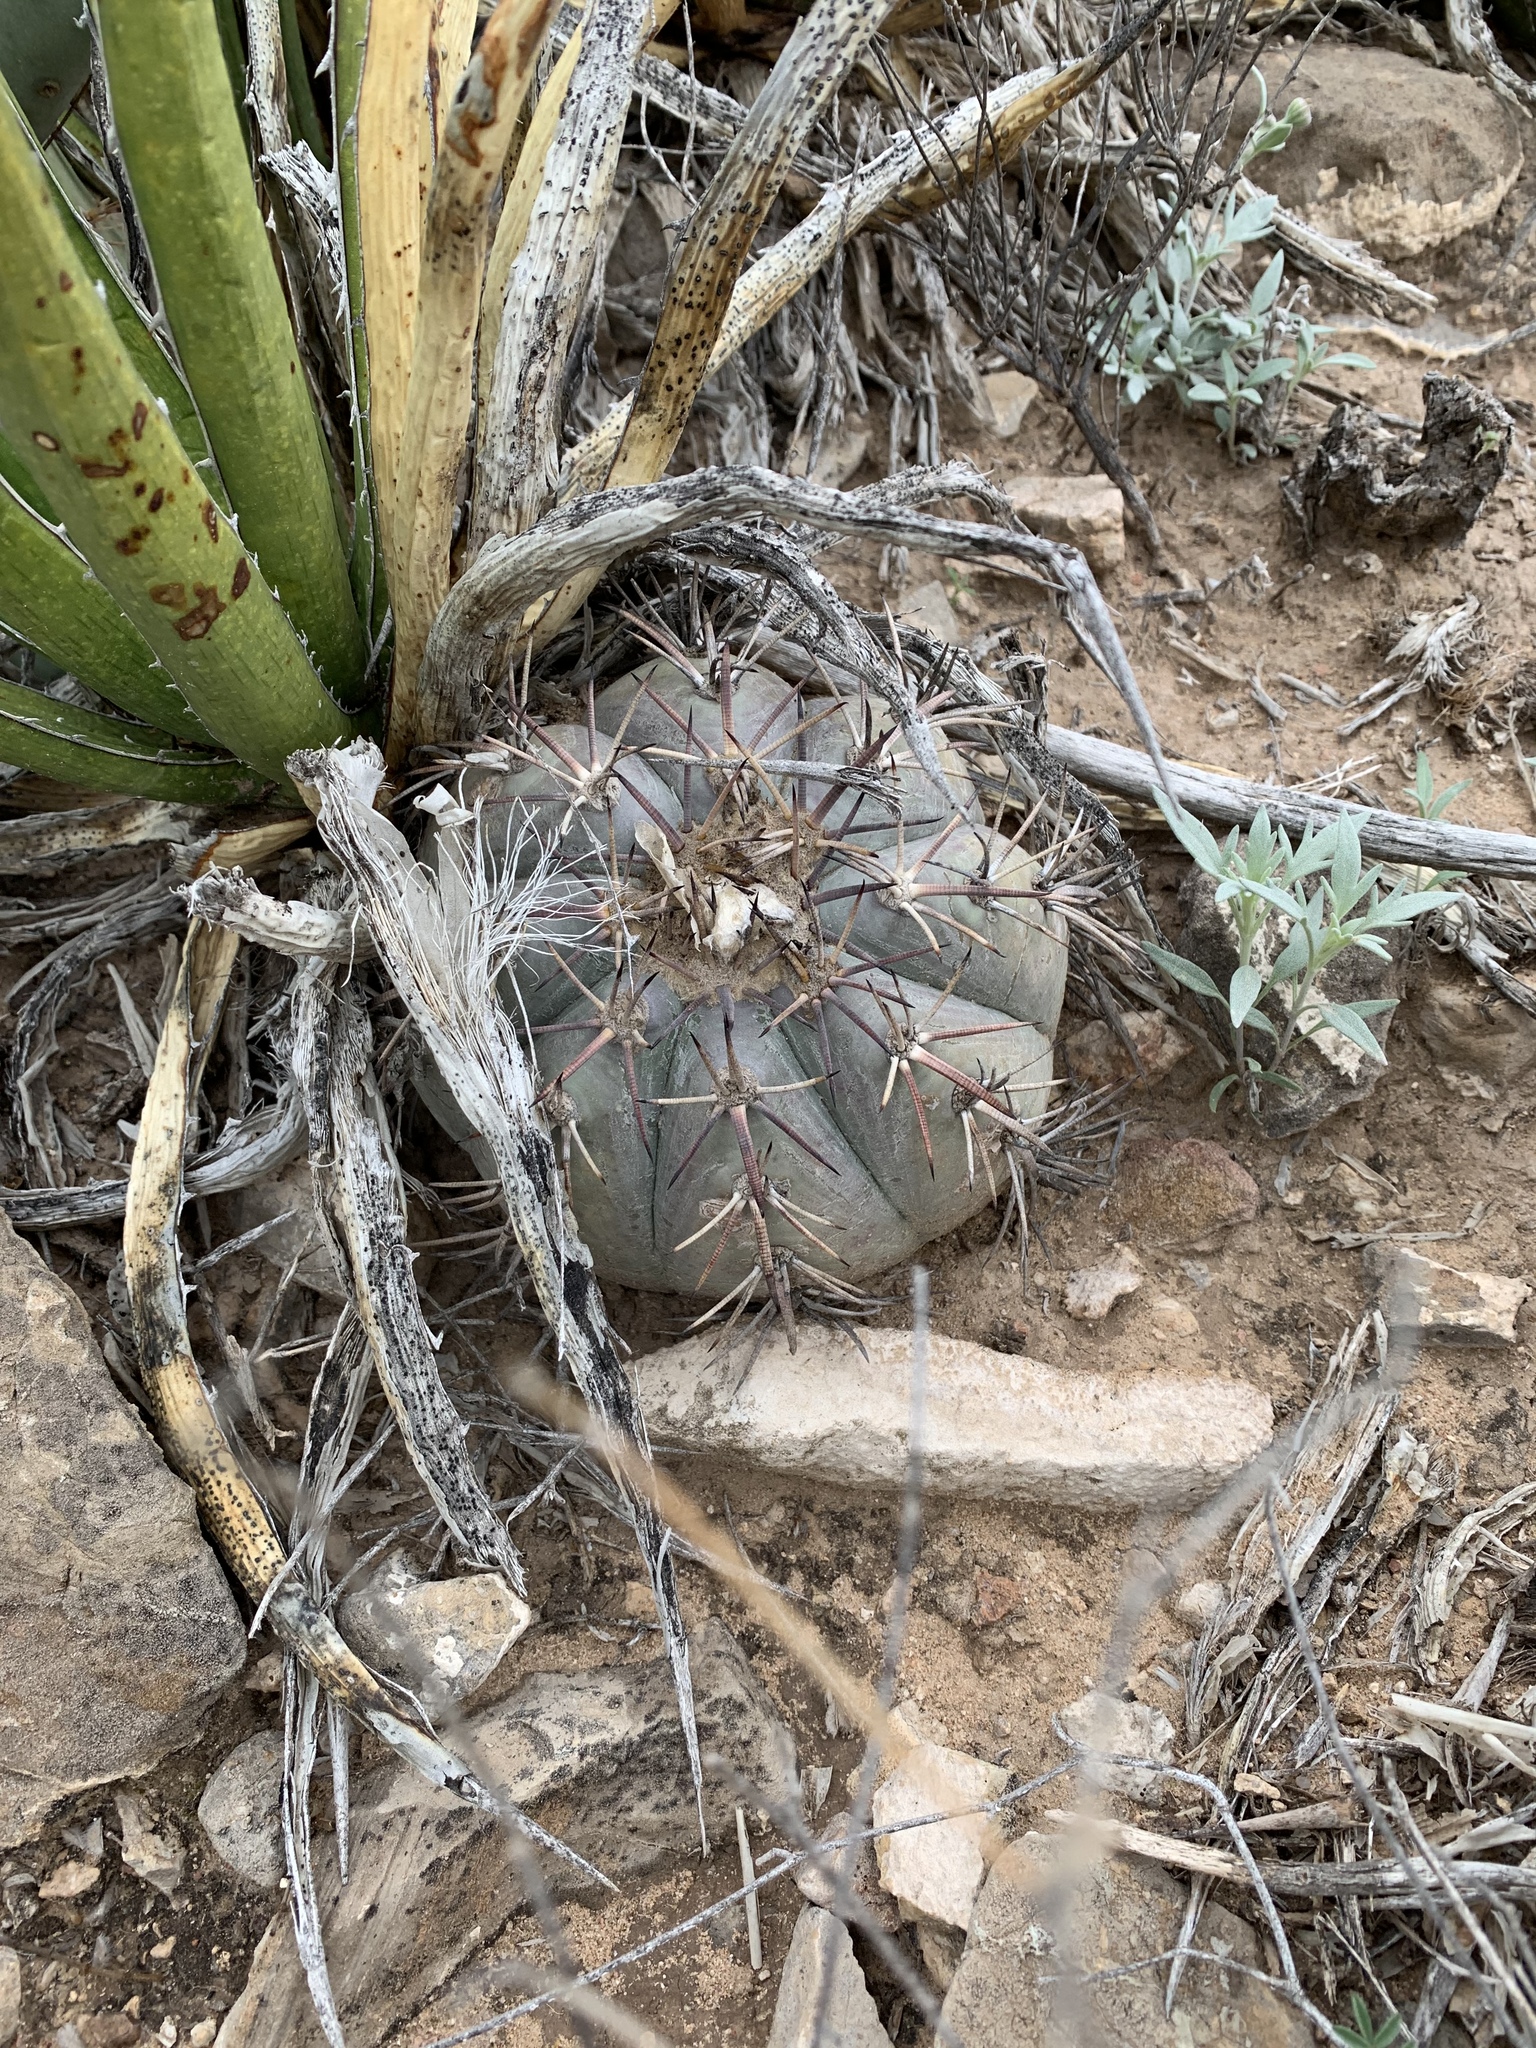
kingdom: Plantae
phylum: Tracheophyta
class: Magnoliopsida
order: Caryophyllales
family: Cactaceae
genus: Echinocactus
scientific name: Echinocactus horizonthalonius
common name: Devilshead
